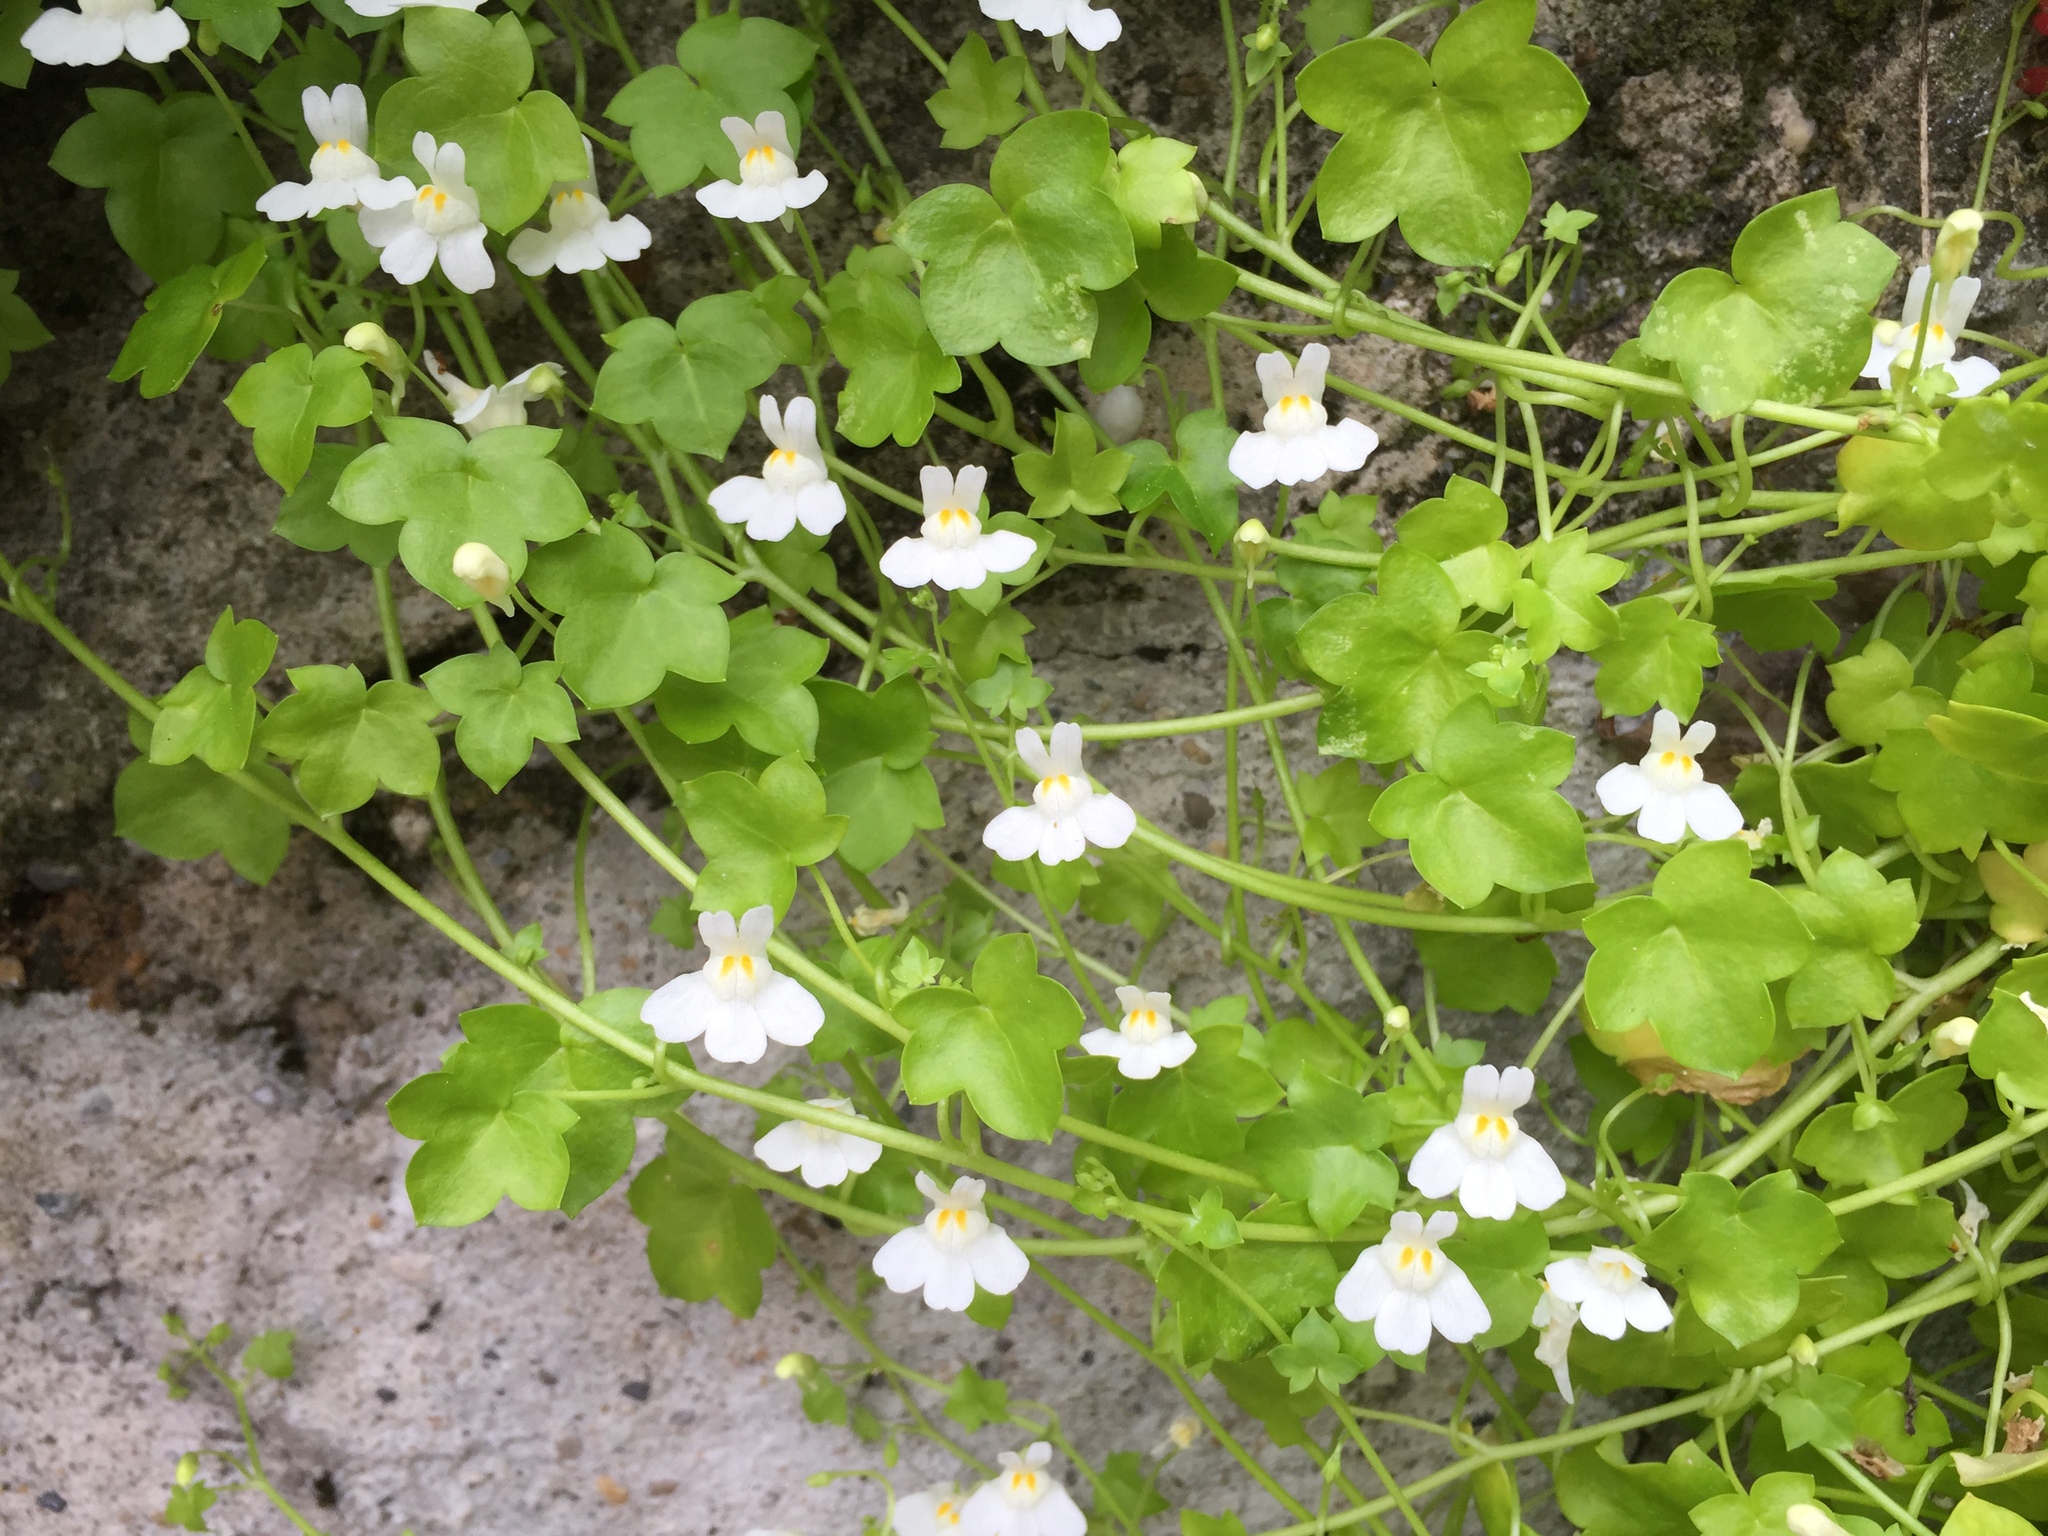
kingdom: Plantae
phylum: Tracheophyta
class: Magnoliopsida
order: Lamiales
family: Plantaginaceae
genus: Cymbalaria
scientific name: Cymbalaria muralis
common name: Ivy-leaved toadflax
